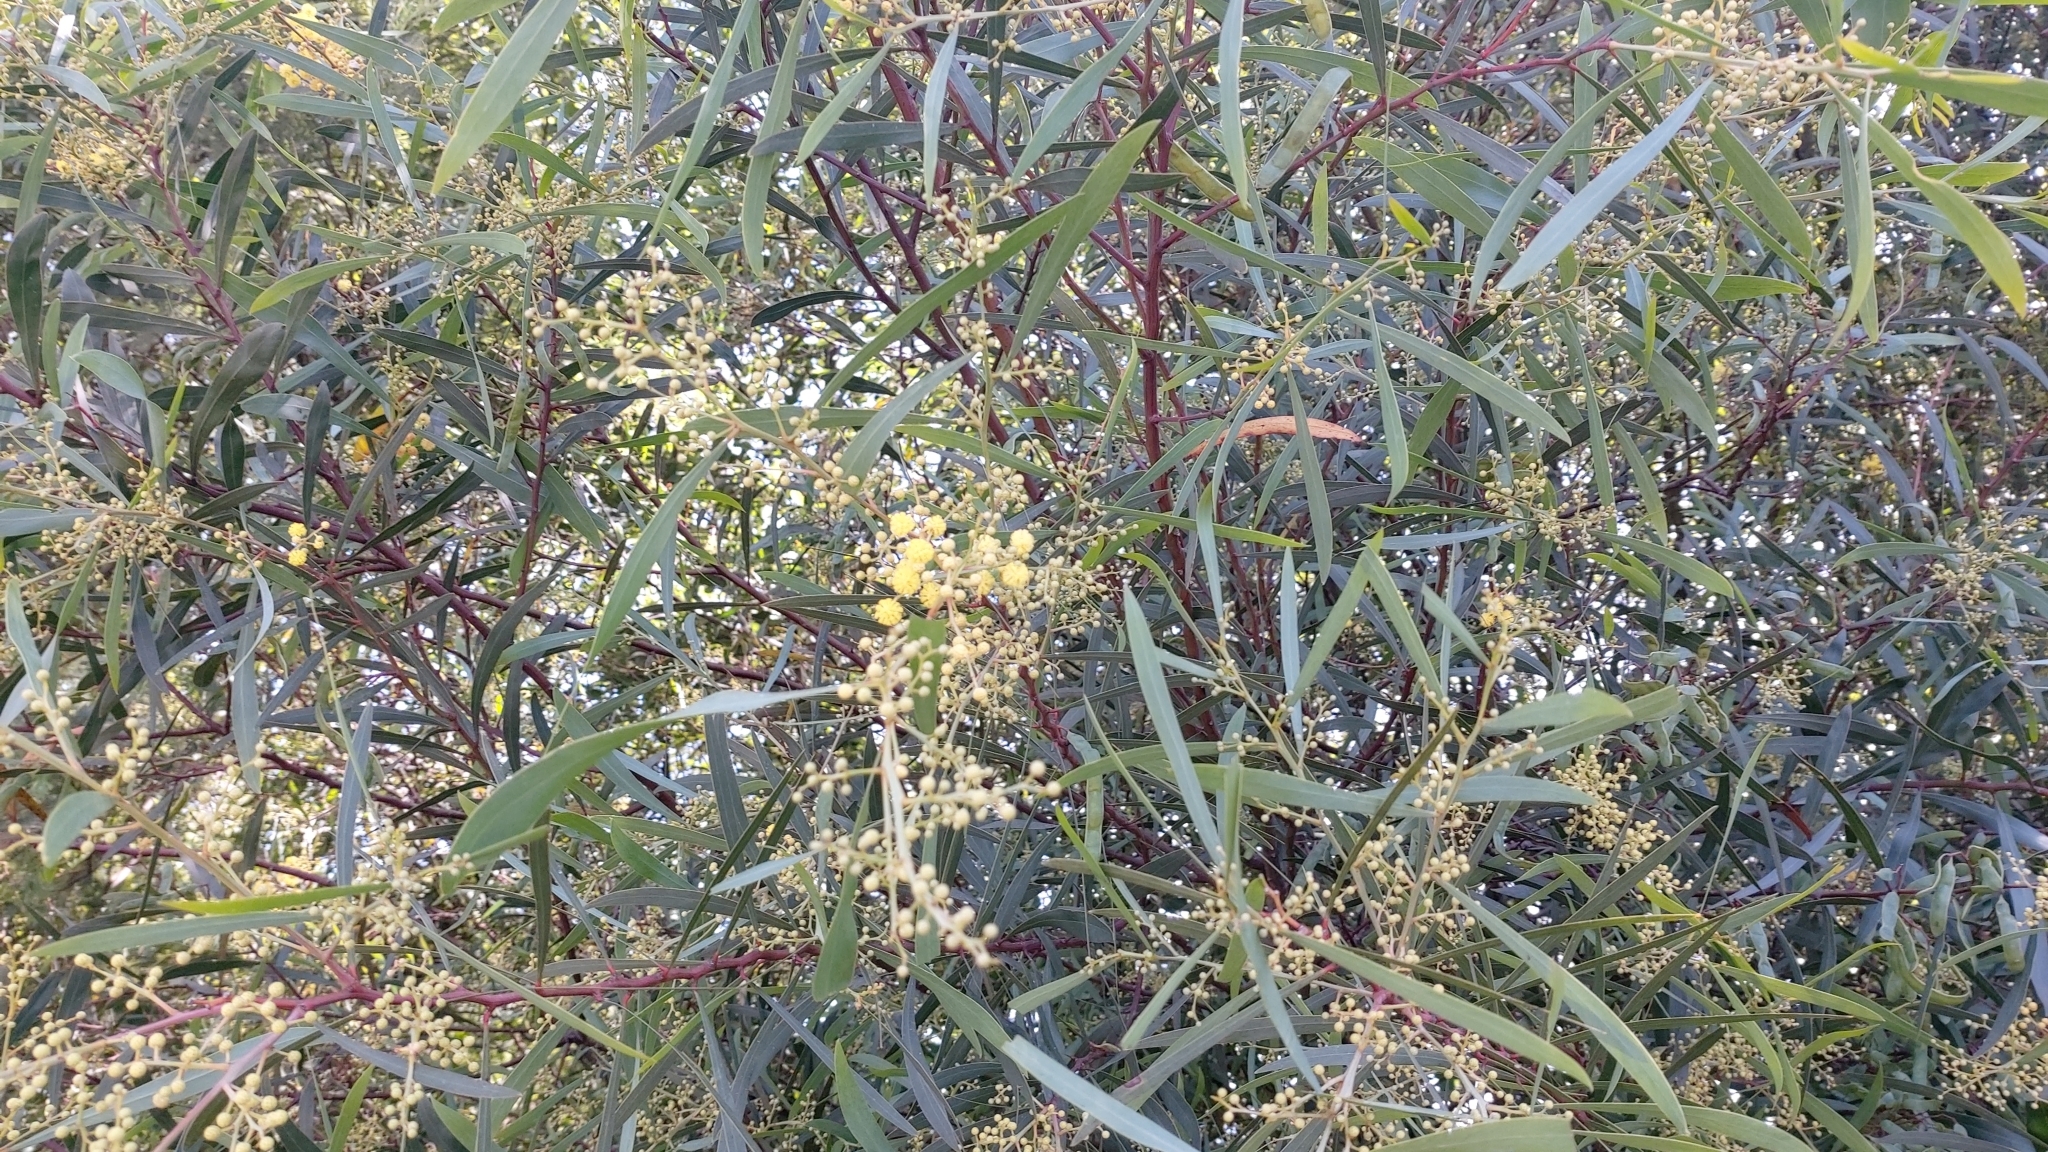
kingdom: Plantae
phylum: Tracheophyta
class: Magnoliopsida
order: Fabales
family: Fabaceae
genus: Acacia
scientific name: Acacia provincialis
